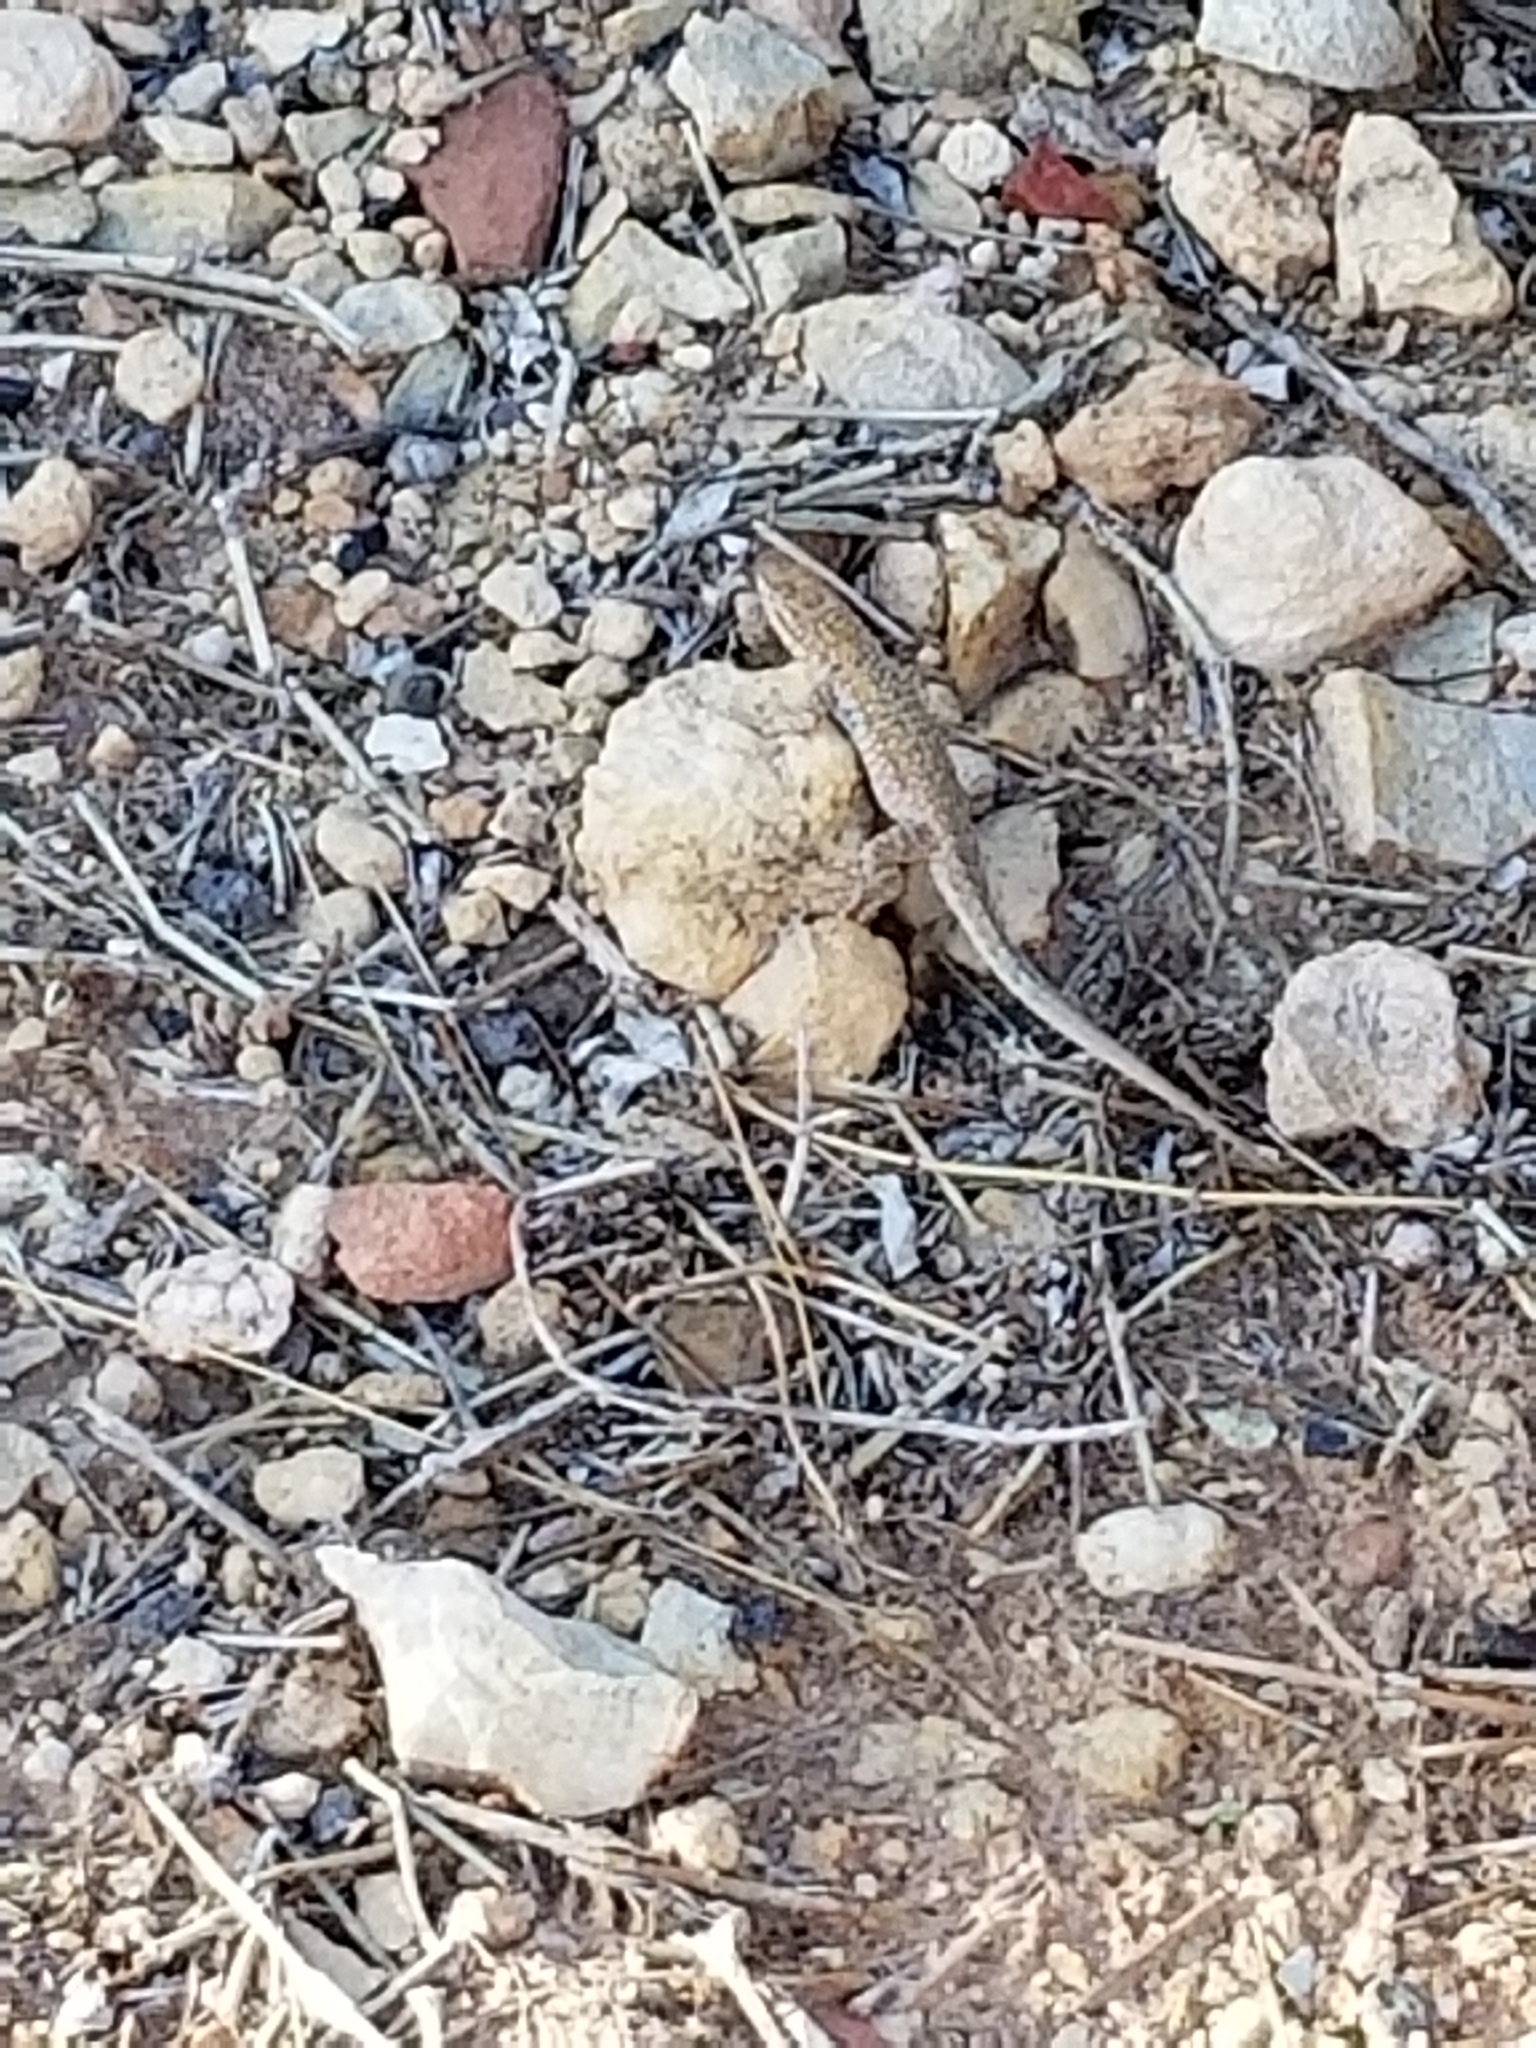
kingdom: Animalia
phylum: Chordata
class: Squamata
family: Phrynosomatidae
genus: Uta
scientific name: Uta stansburiana
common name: Side-blotched lizard
